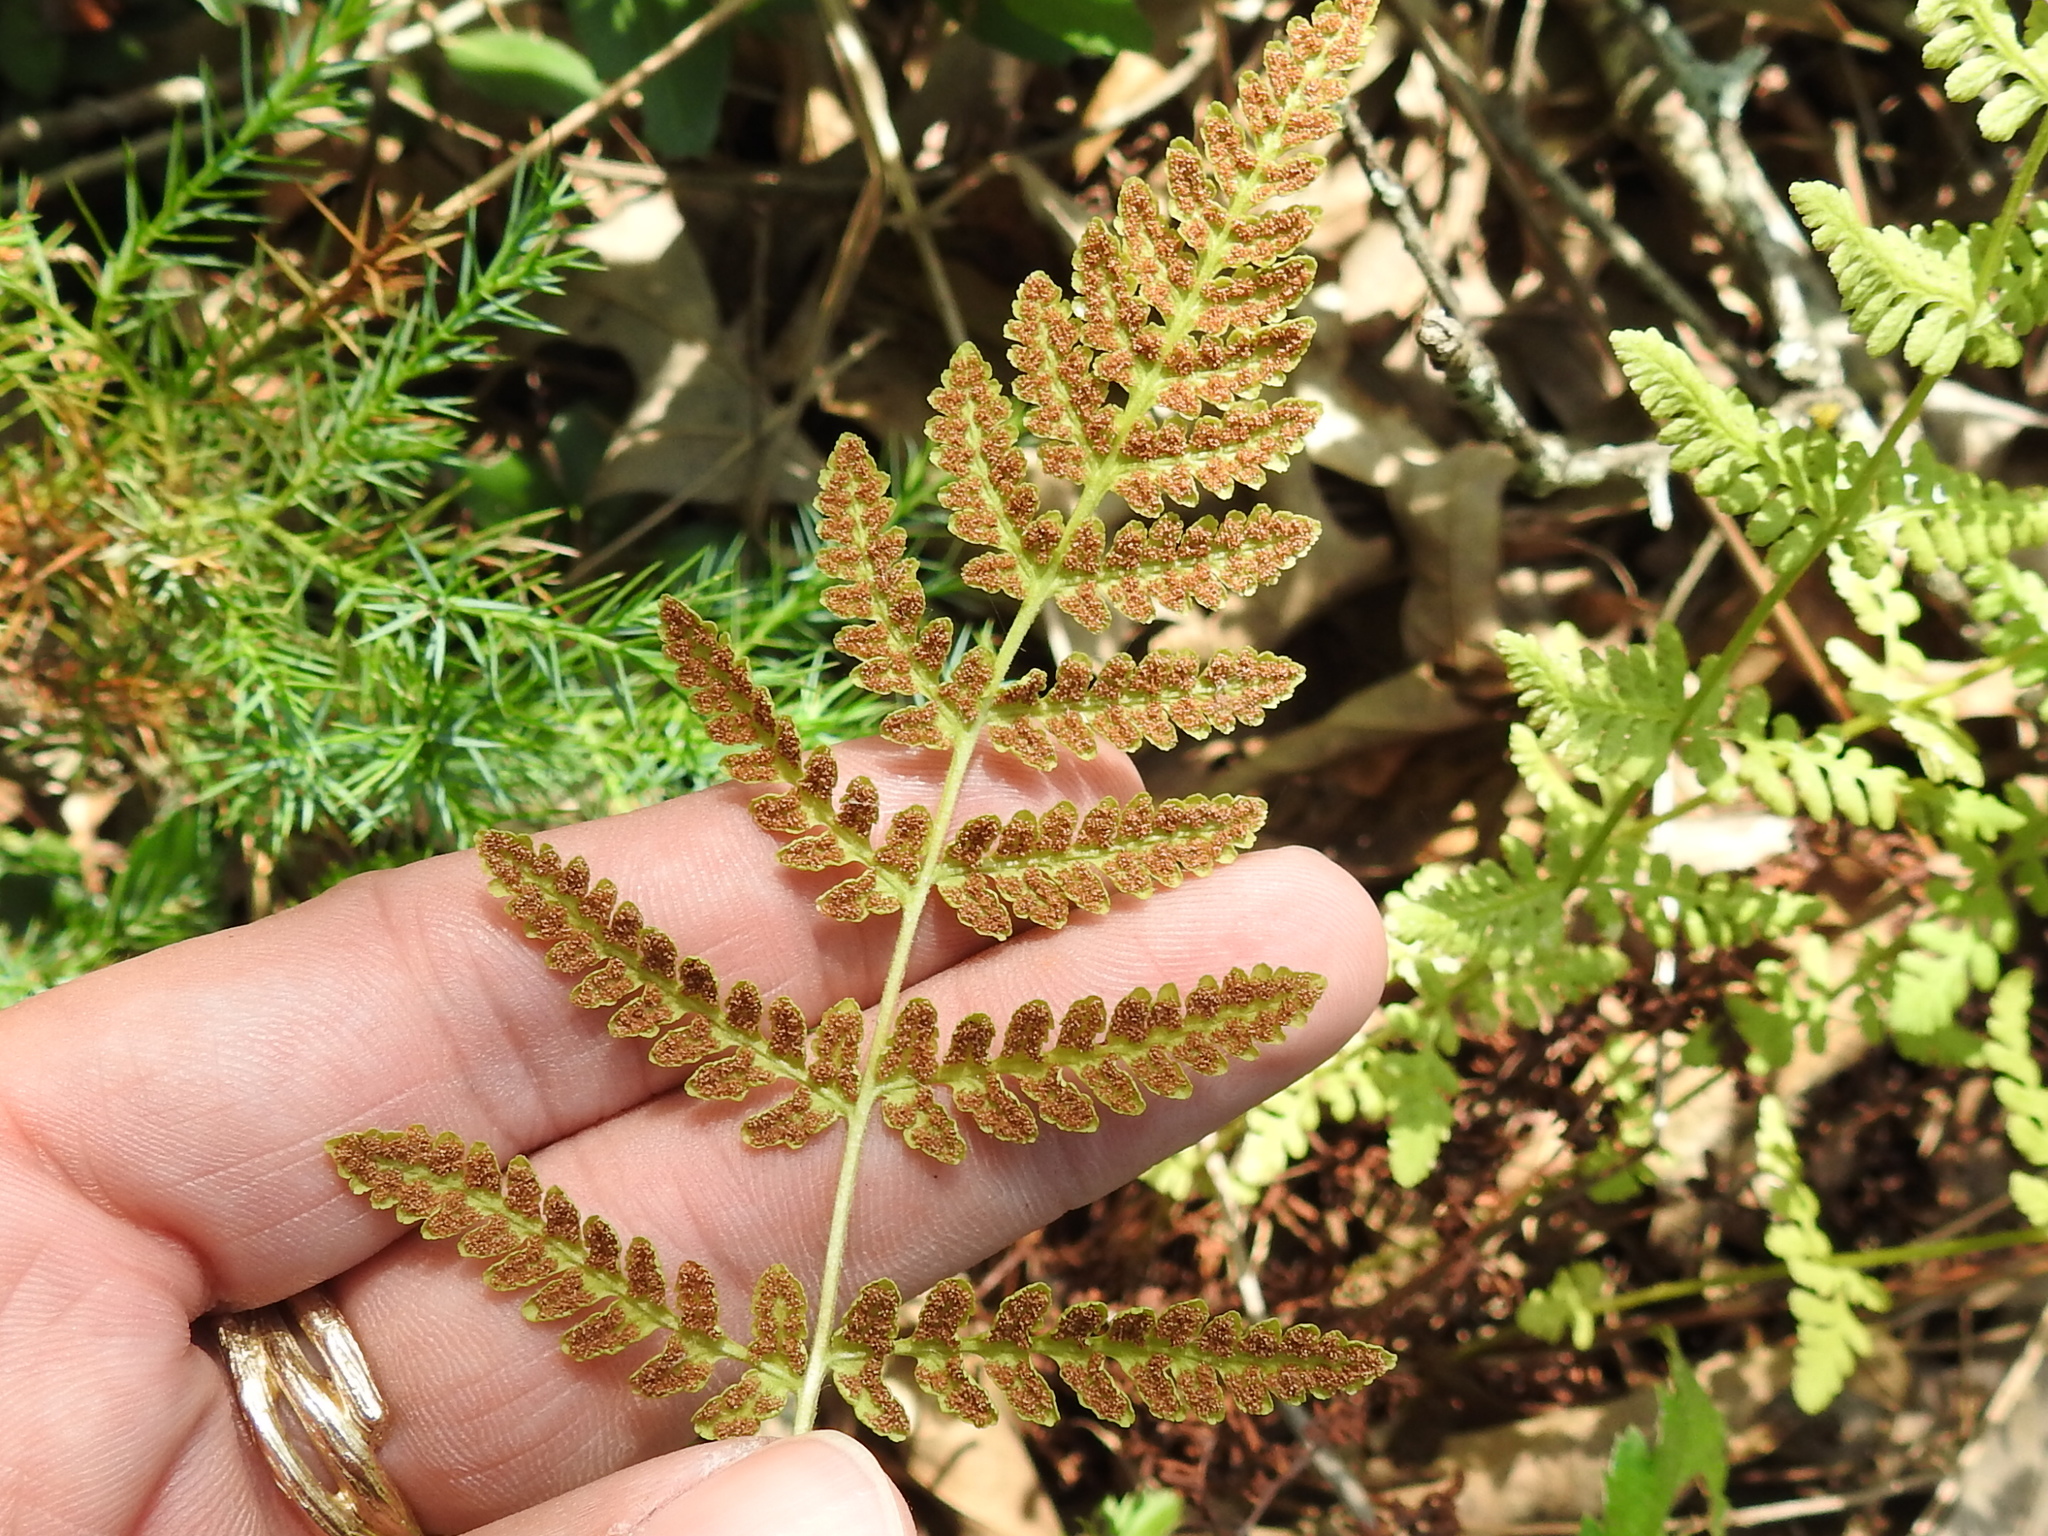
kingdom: Plantae
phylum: Tracheophyta
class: Polypodiopsida
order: Polypodiales
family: Woodsiaceae
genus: Physematium
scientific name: Physematium obtusum
